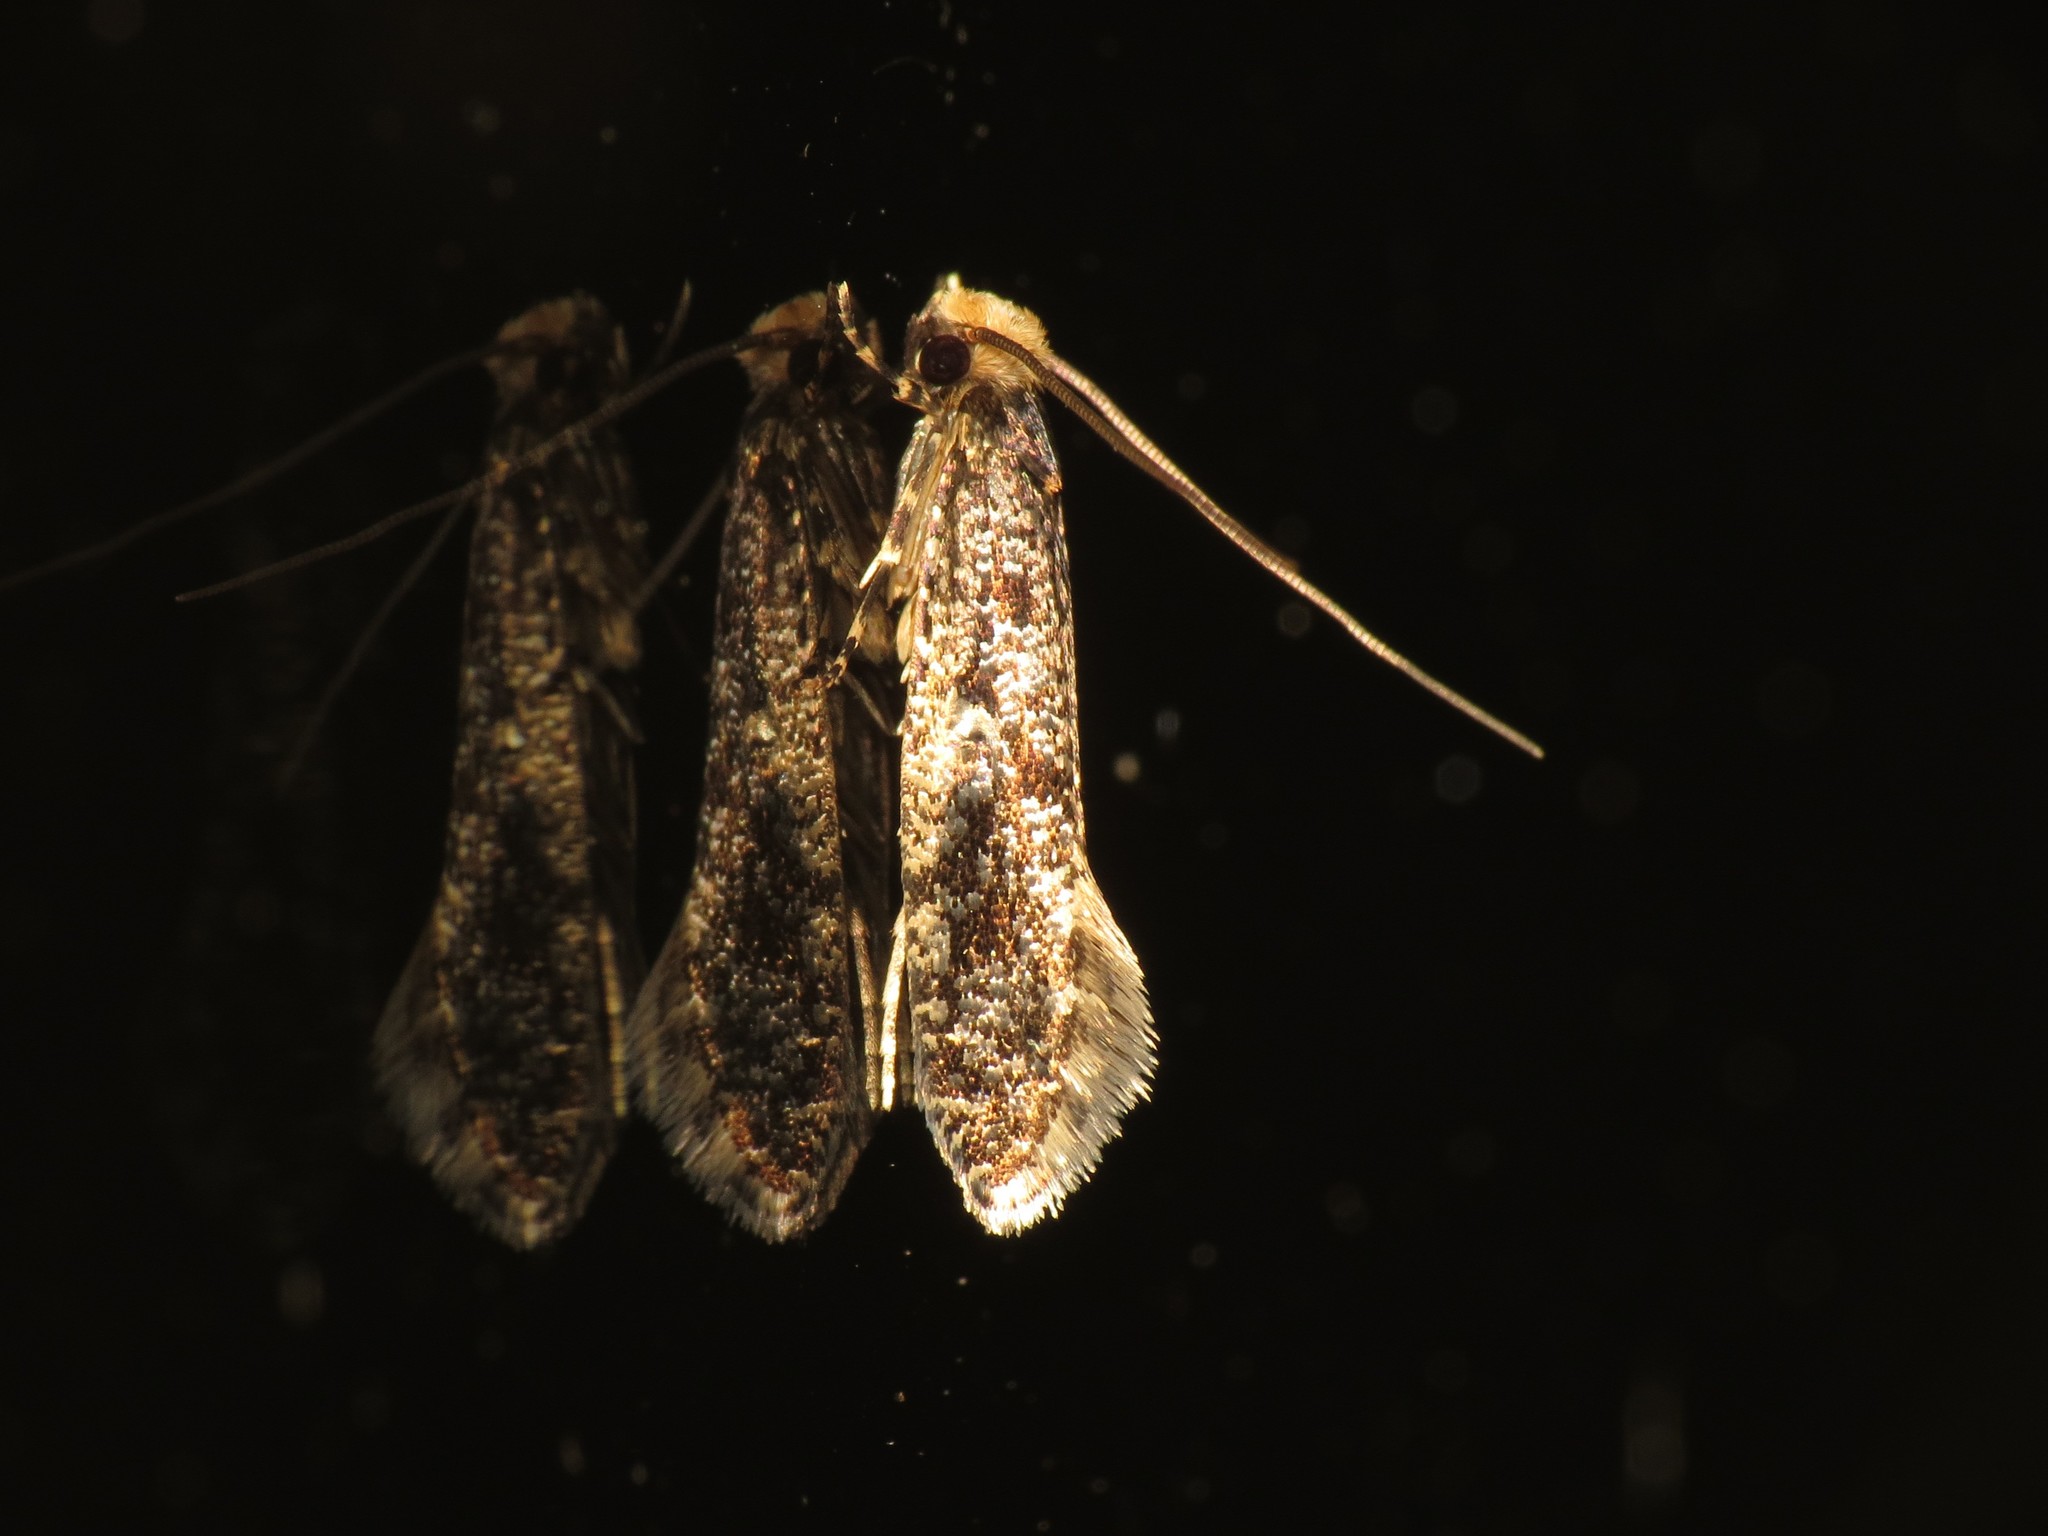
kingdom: Animalia
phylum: Arthropoda
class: Insecta
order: Lepidoptera
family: Tineidae
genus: Monopis
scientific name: Monopis laevigella
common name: Skin moth
